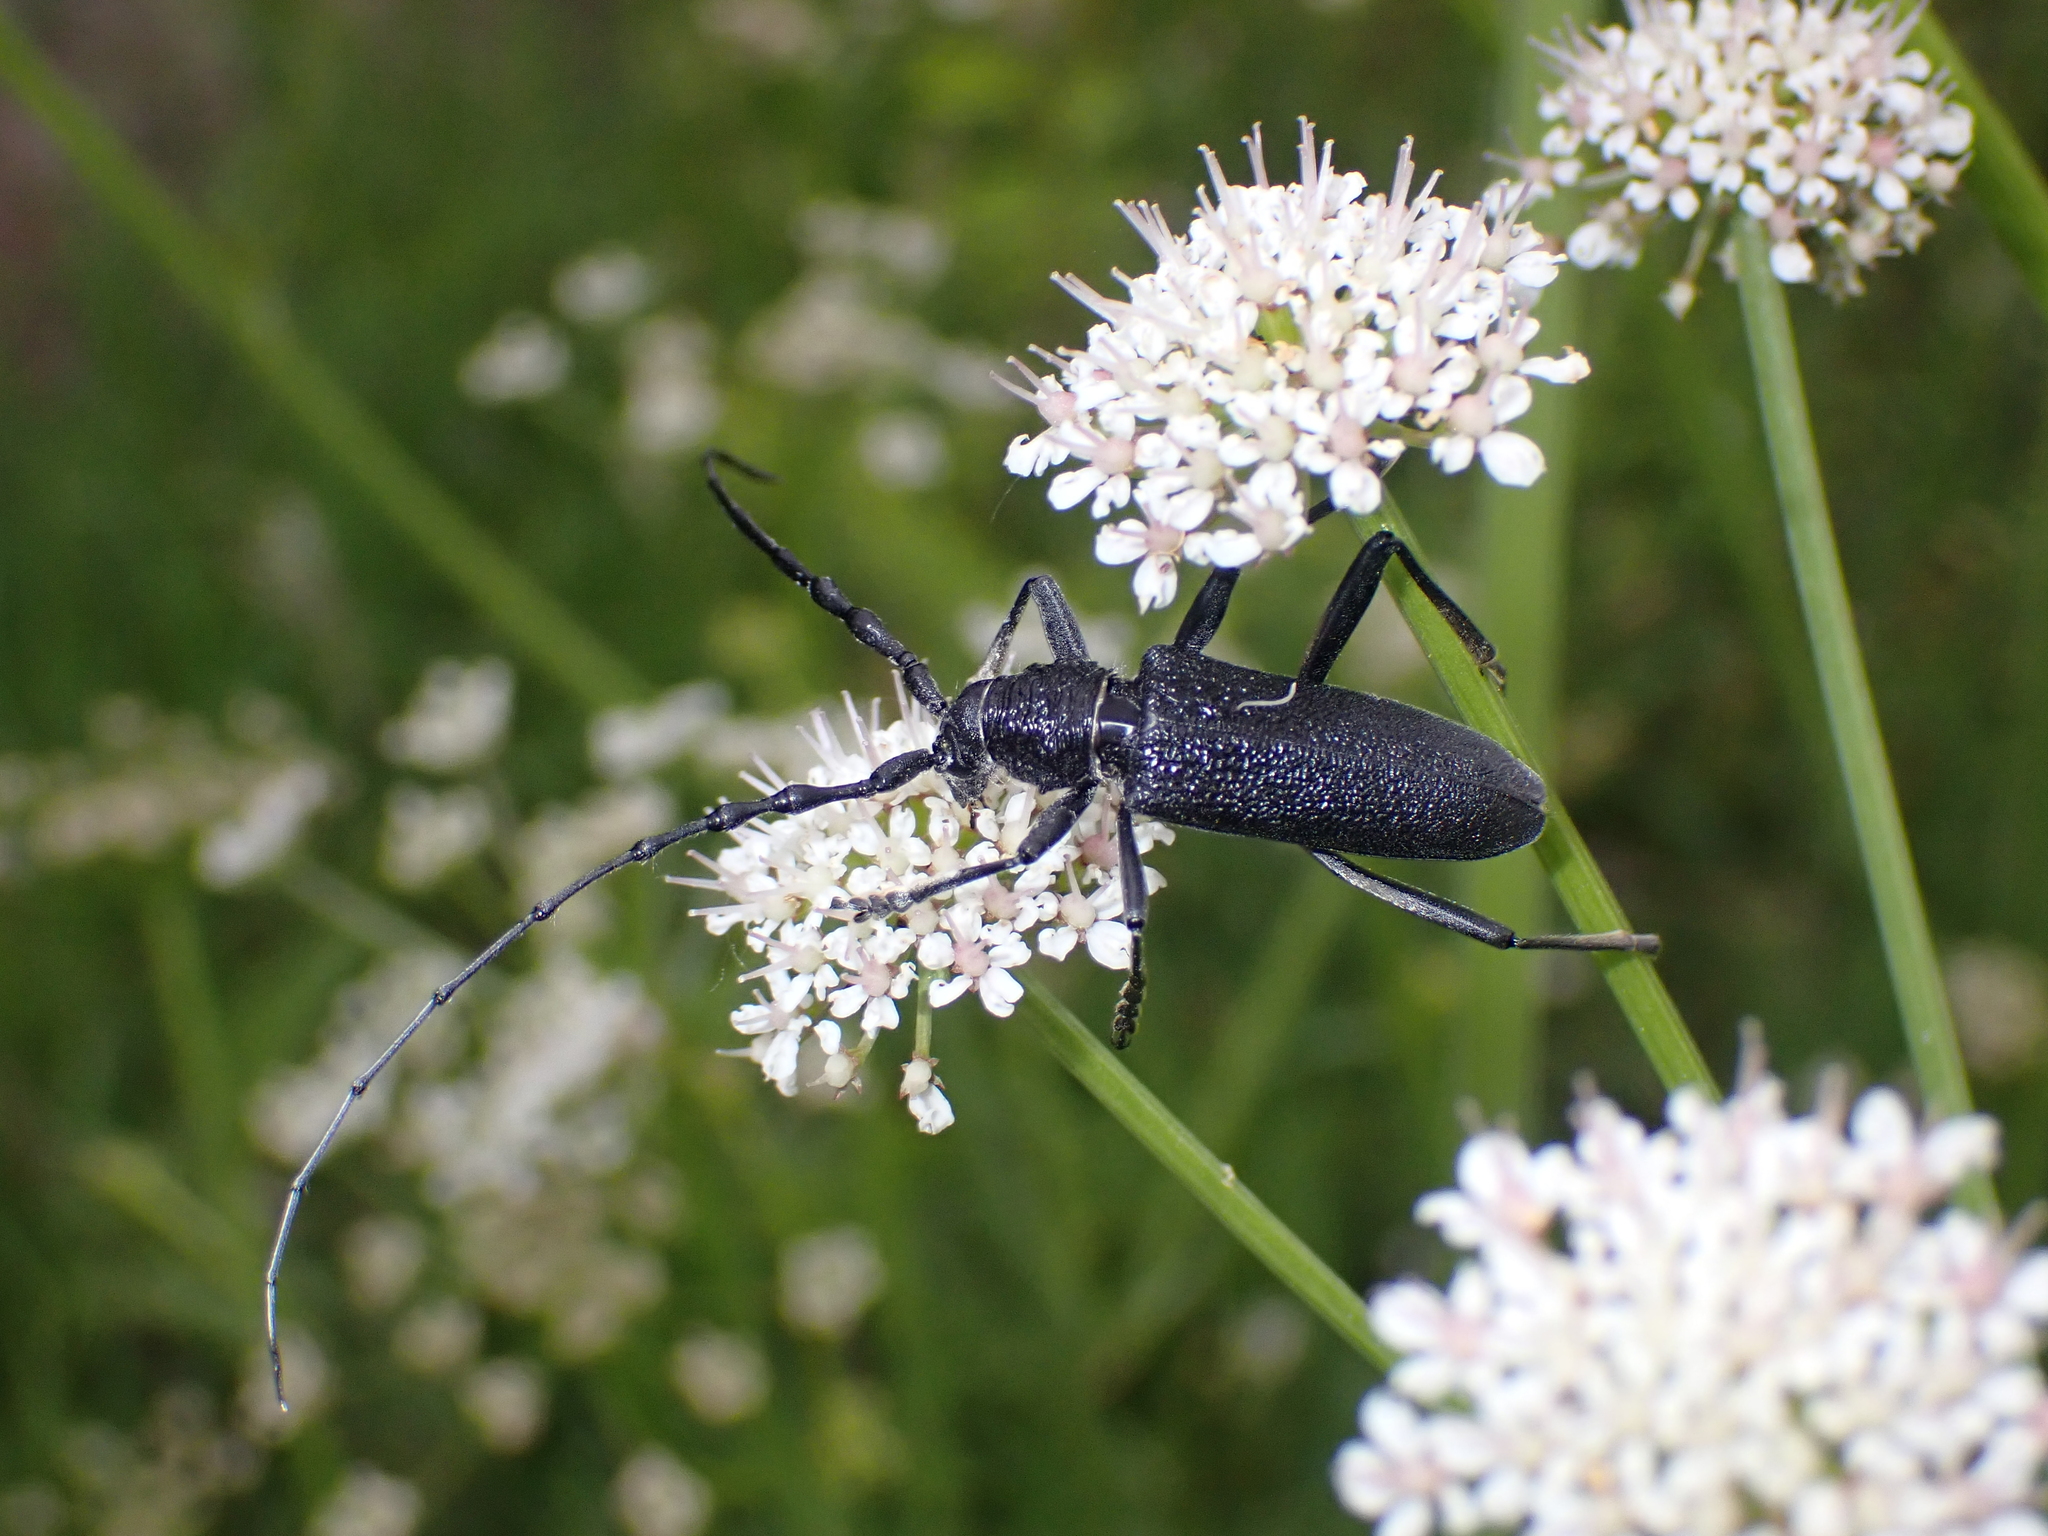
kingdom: Animalia
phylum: Arthropoda
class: Insecta
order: Coleoptera
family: Cerambycidae
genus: Cerambyx
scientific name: Cerambyx scopolii
